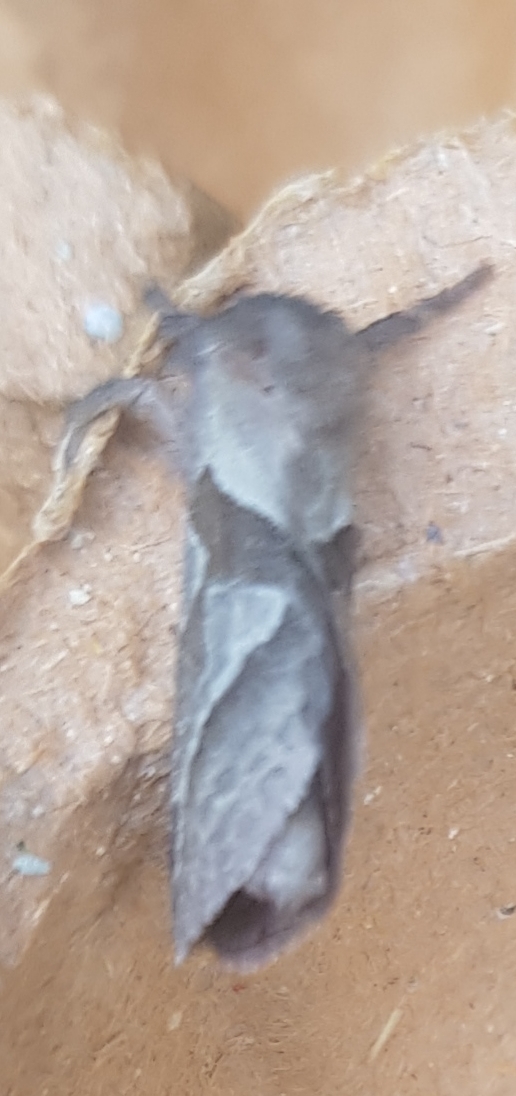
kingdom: Animalia
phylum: Arthropoda
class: Insecta
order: Lepidoptera
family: Hepialidae
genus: Triodia
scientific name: Triodia sylvina
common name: Orange swift
